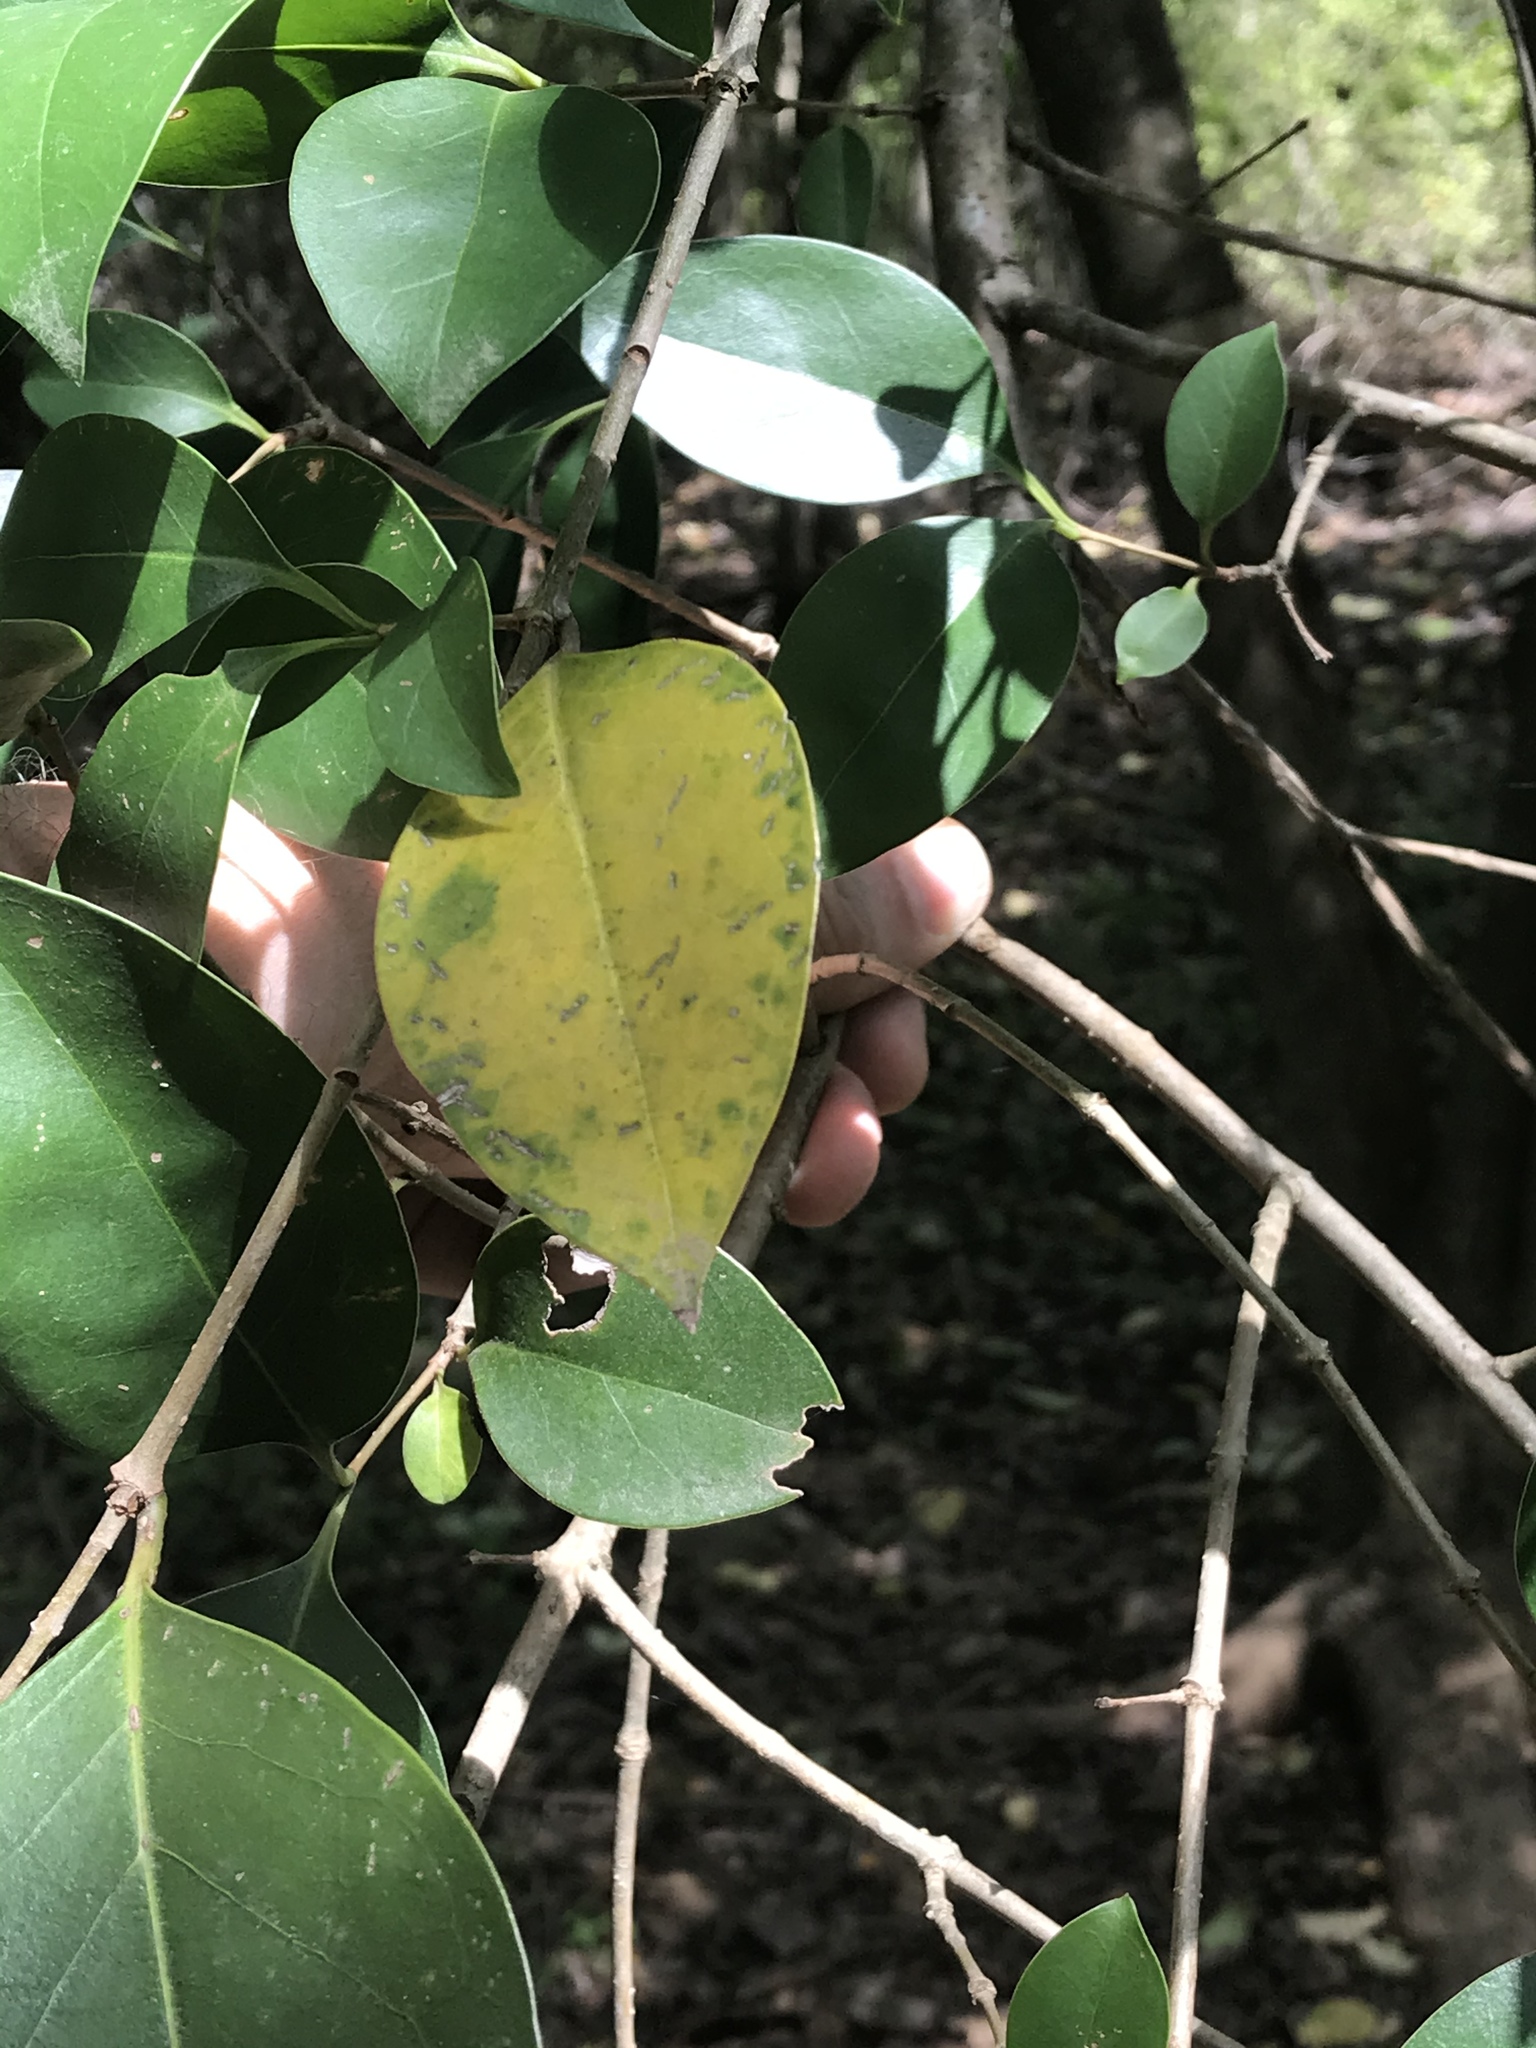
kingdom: Plantae
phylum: Tracheophyta
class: Magnoliopsida
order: Lamiales
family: Oleaceae
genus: Ligustrum
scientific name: Ligustrum lucidum
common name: Glossy privet
